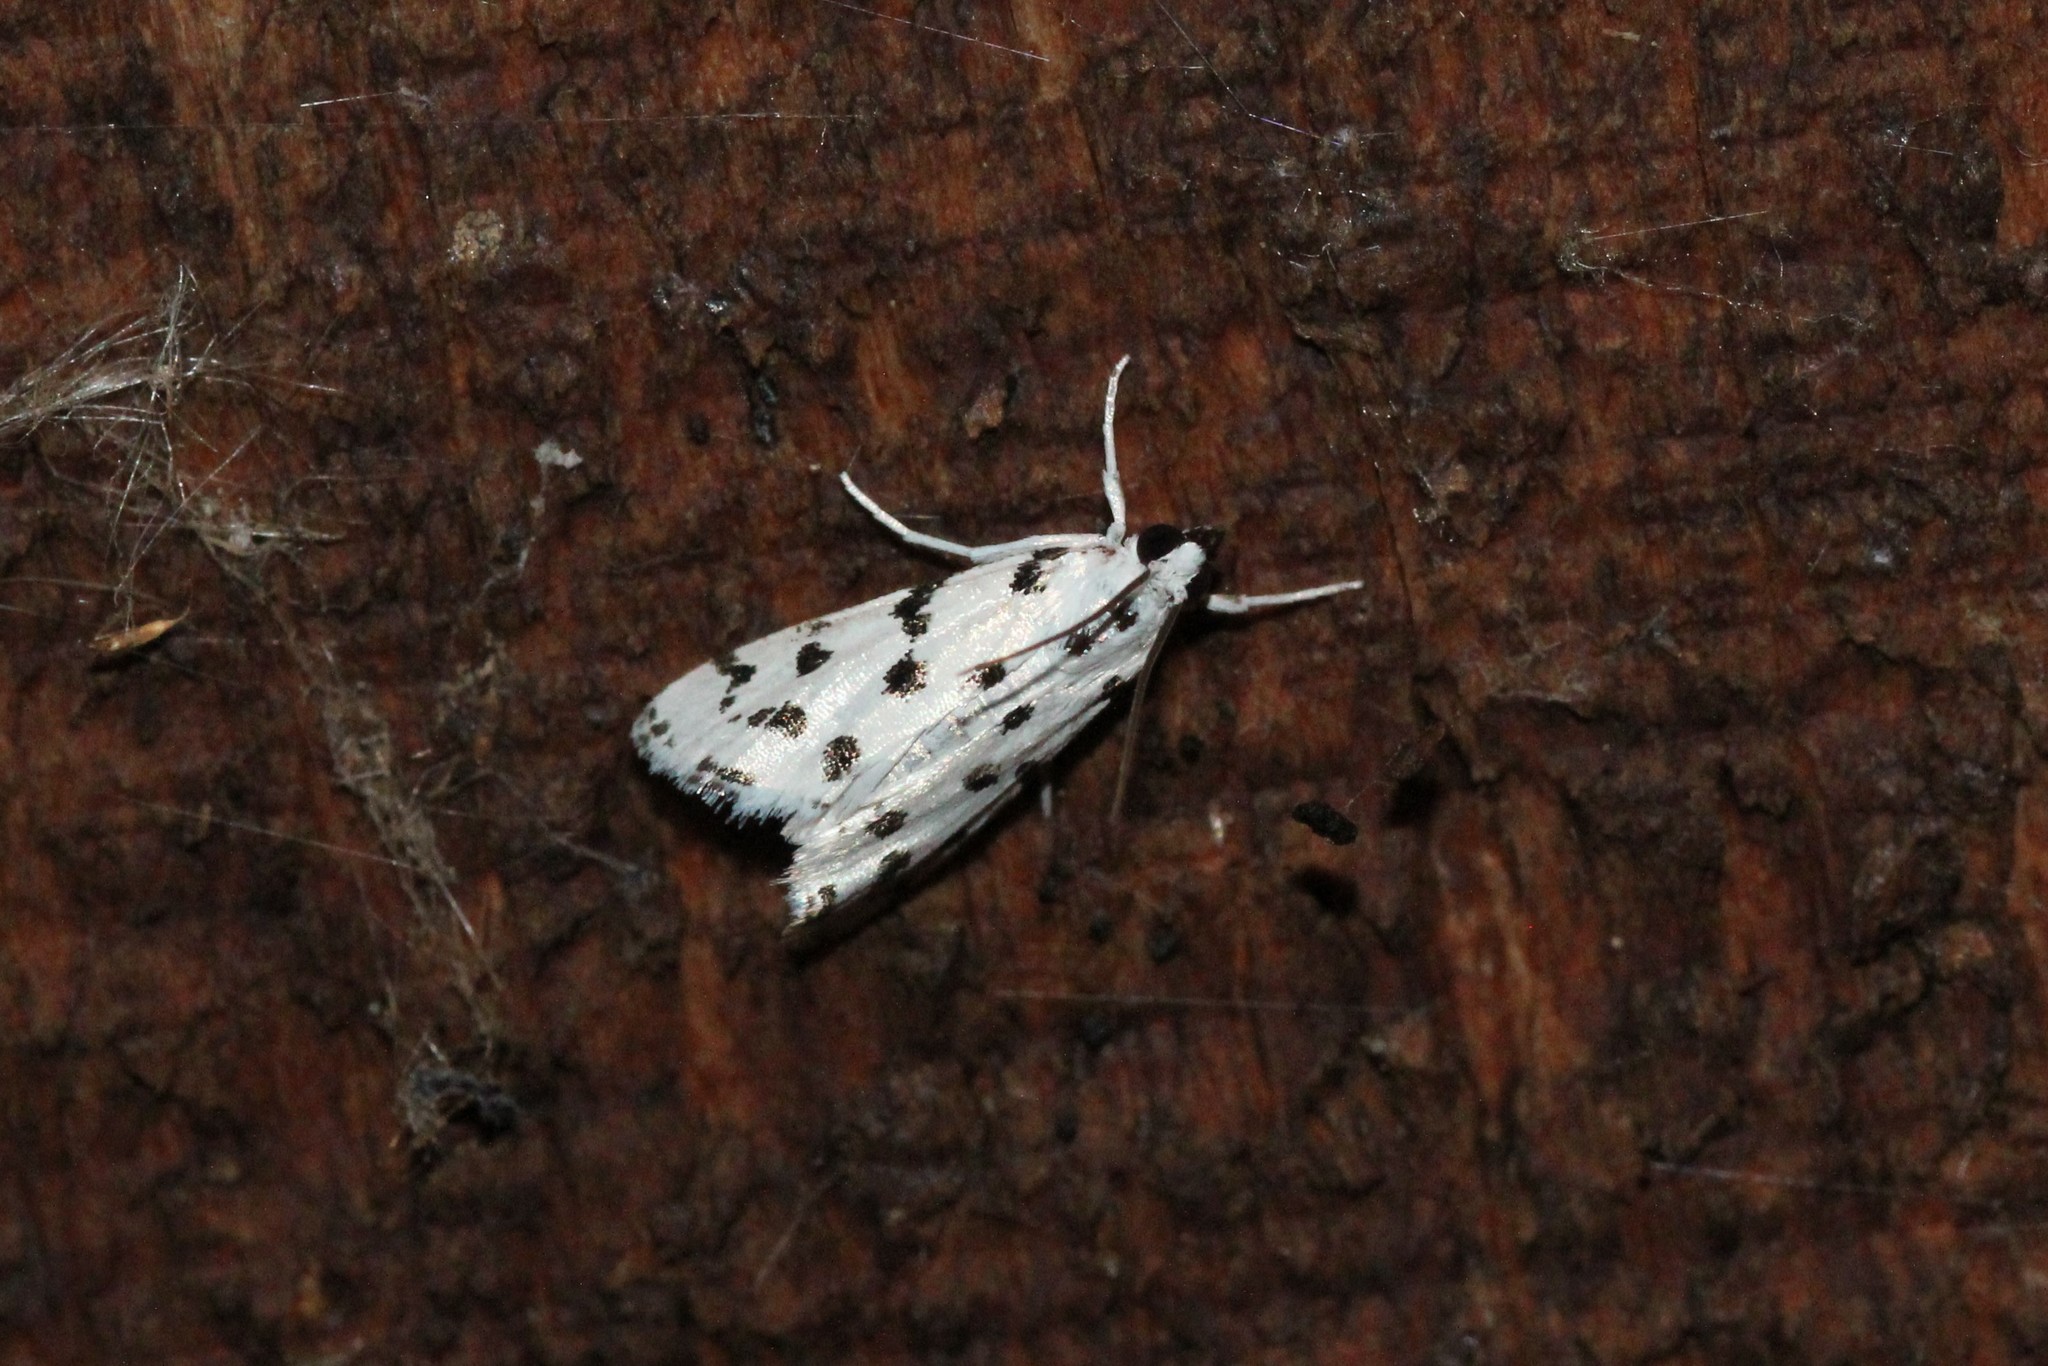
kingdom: Animalia
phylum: Arthropoda
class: Insecta
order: Lepidoptera
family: Crambidae
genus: Eustixia
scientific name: Eustixia pupula
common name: American cabbage pearl
